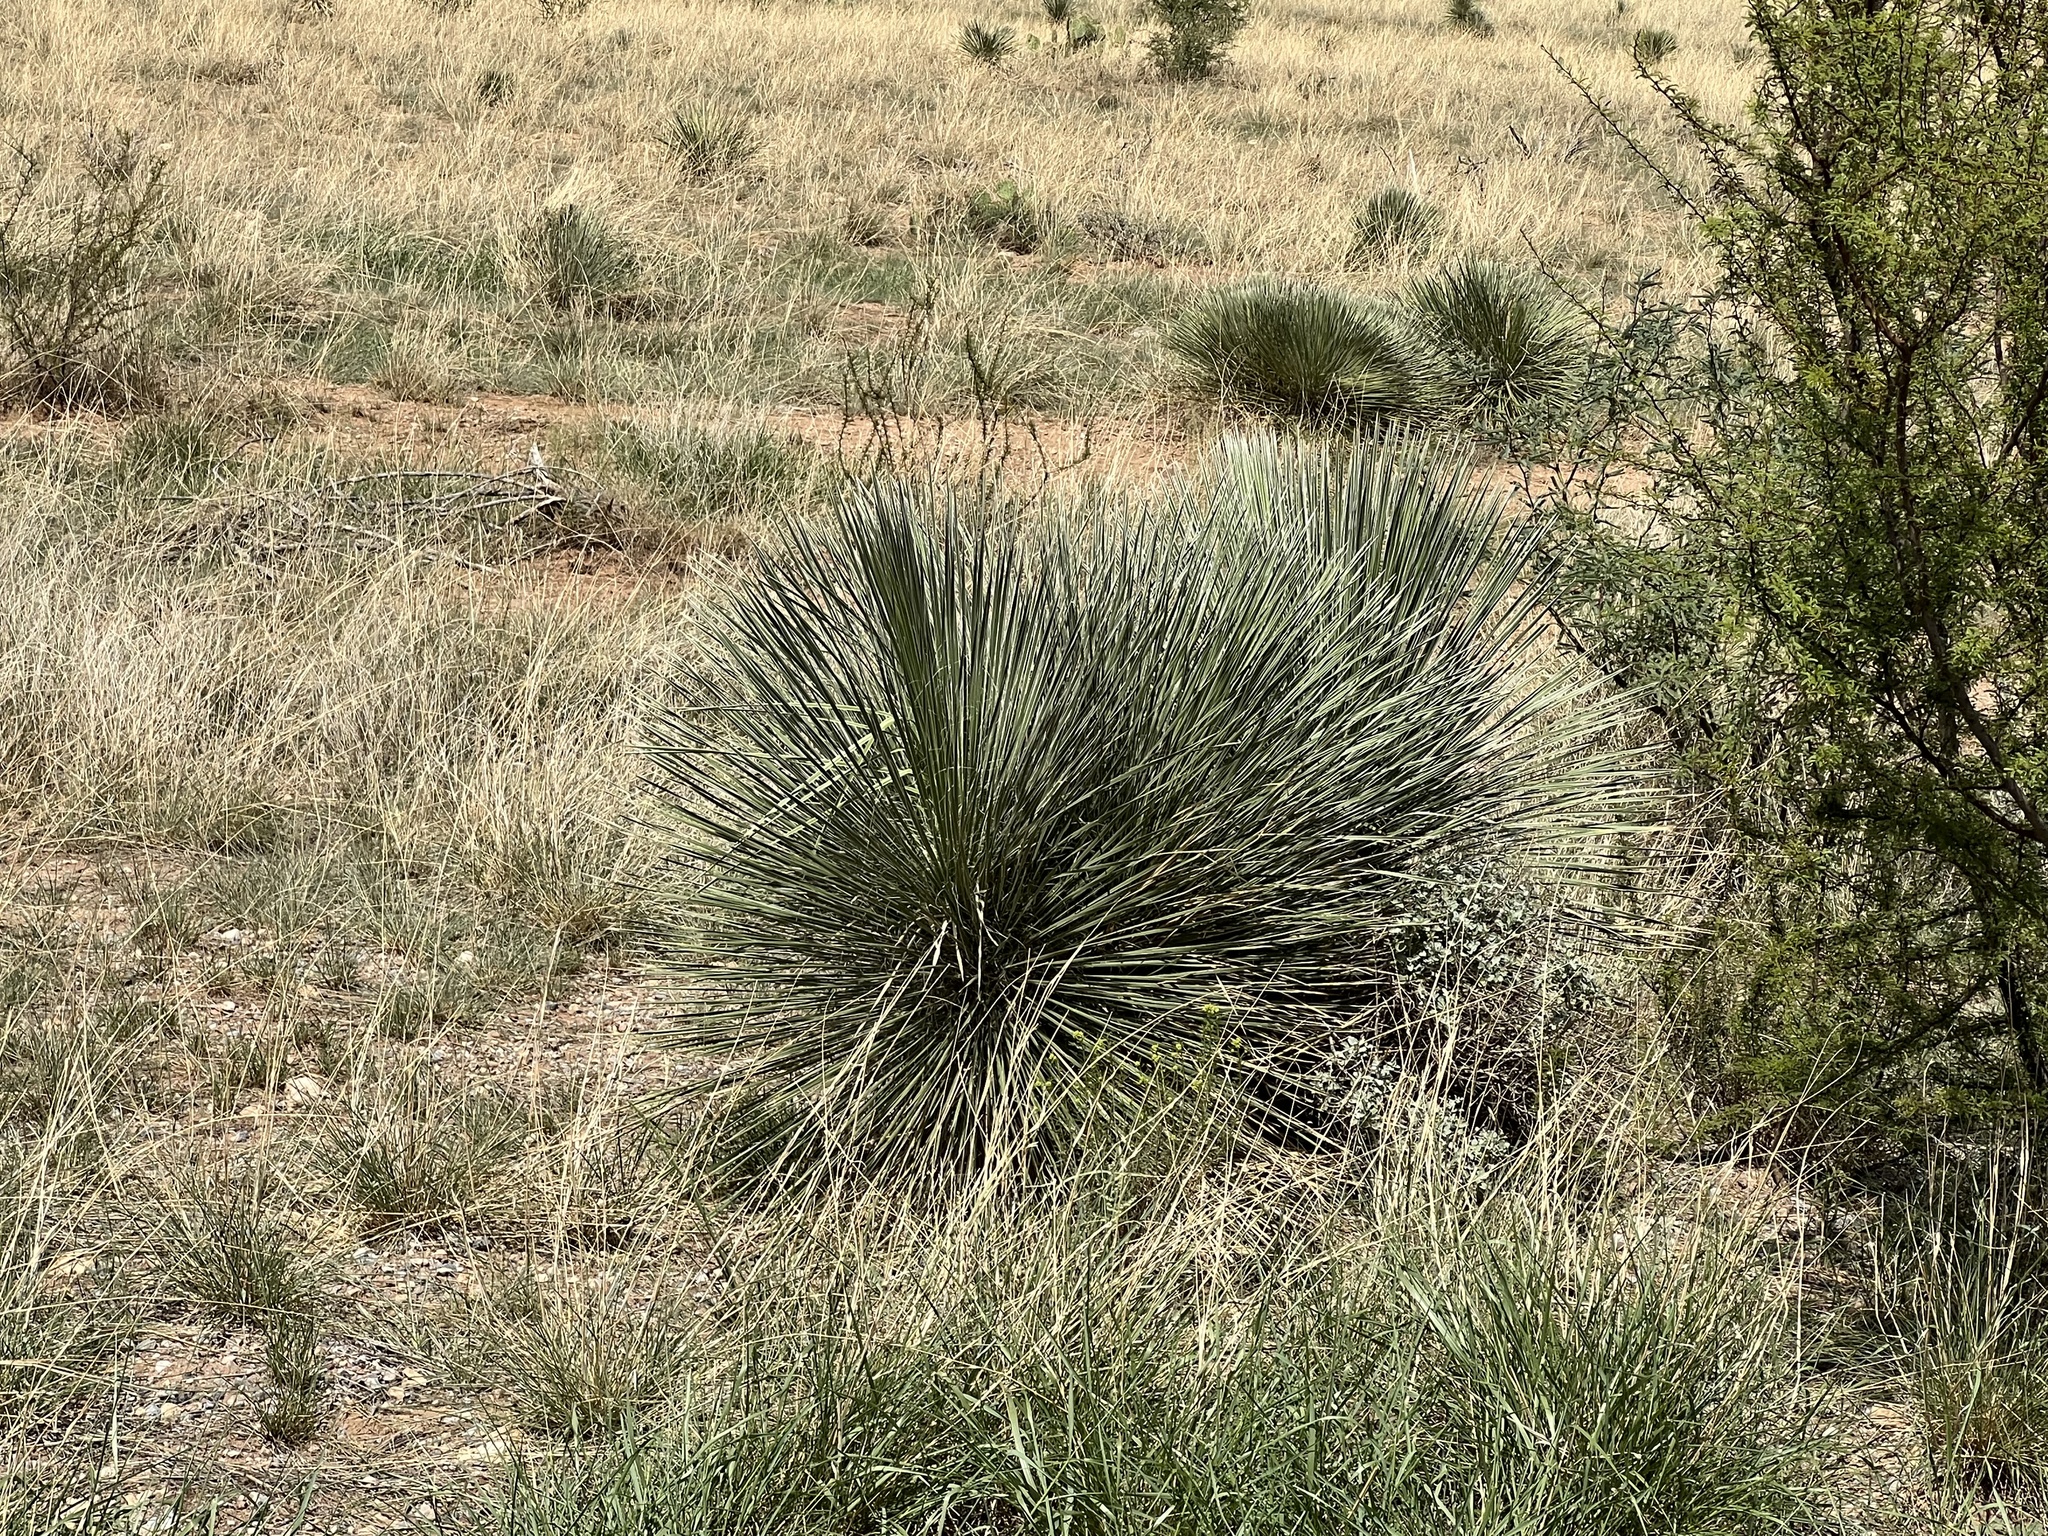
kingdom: Plantae
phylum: Tracheophyta
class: Liliopsida
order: Asparagales
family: Asparagaceae
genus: Yucca
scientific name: Yucca elata
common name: Palmella
